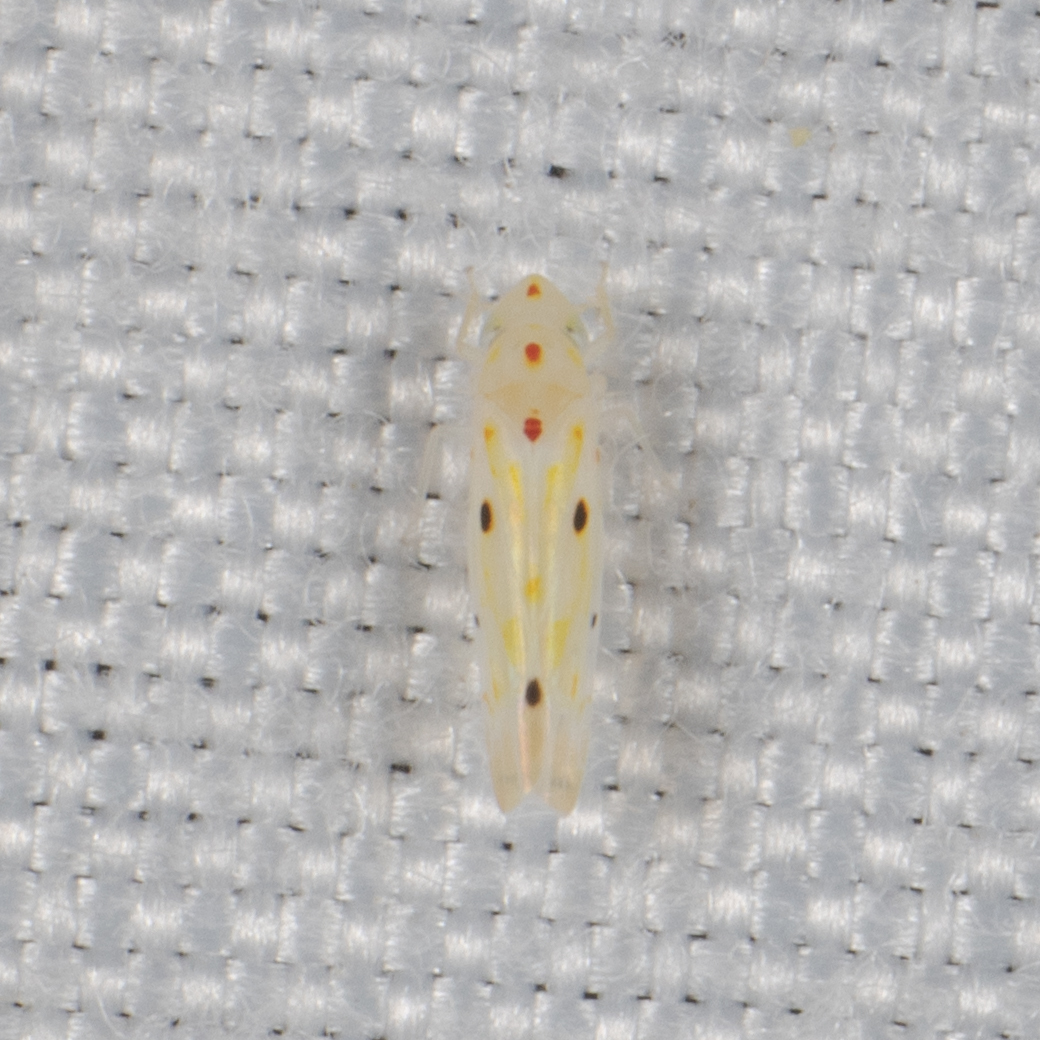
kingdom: Animalia
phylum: Arthropoda
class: Insecta
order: Hemiptera
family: Cicadellidae
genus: Illinigina
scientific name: Illinigina illinoiensis
